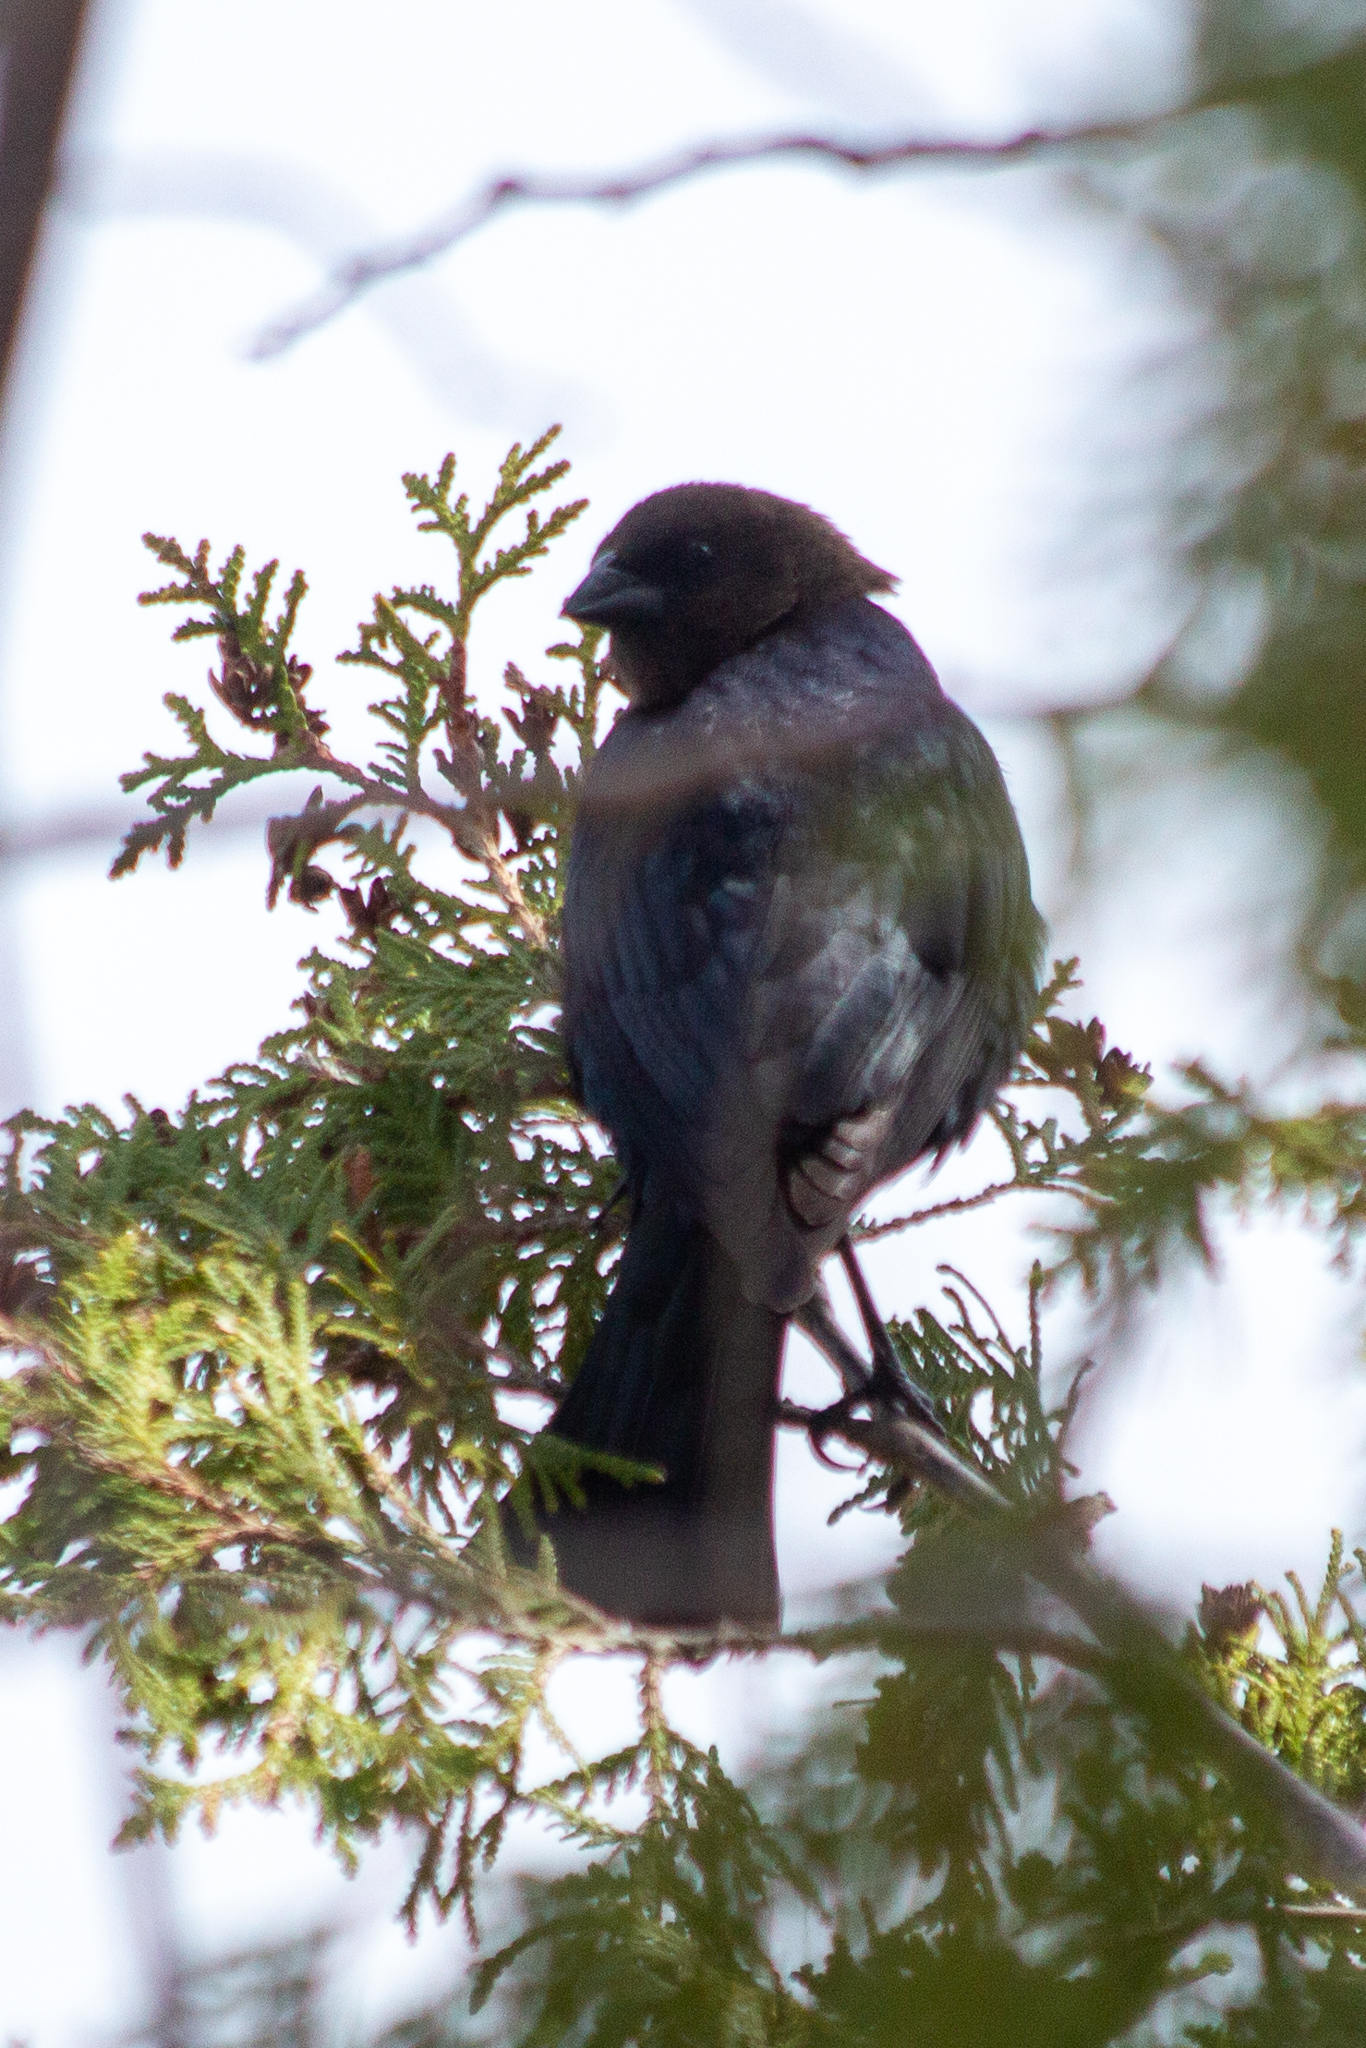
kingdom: Animalia
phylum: Chordata
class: Aves
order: Passeriformes
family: Icteridae
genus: Molothrus
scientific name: Molothrus ater
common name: Brown-headed cowbird
